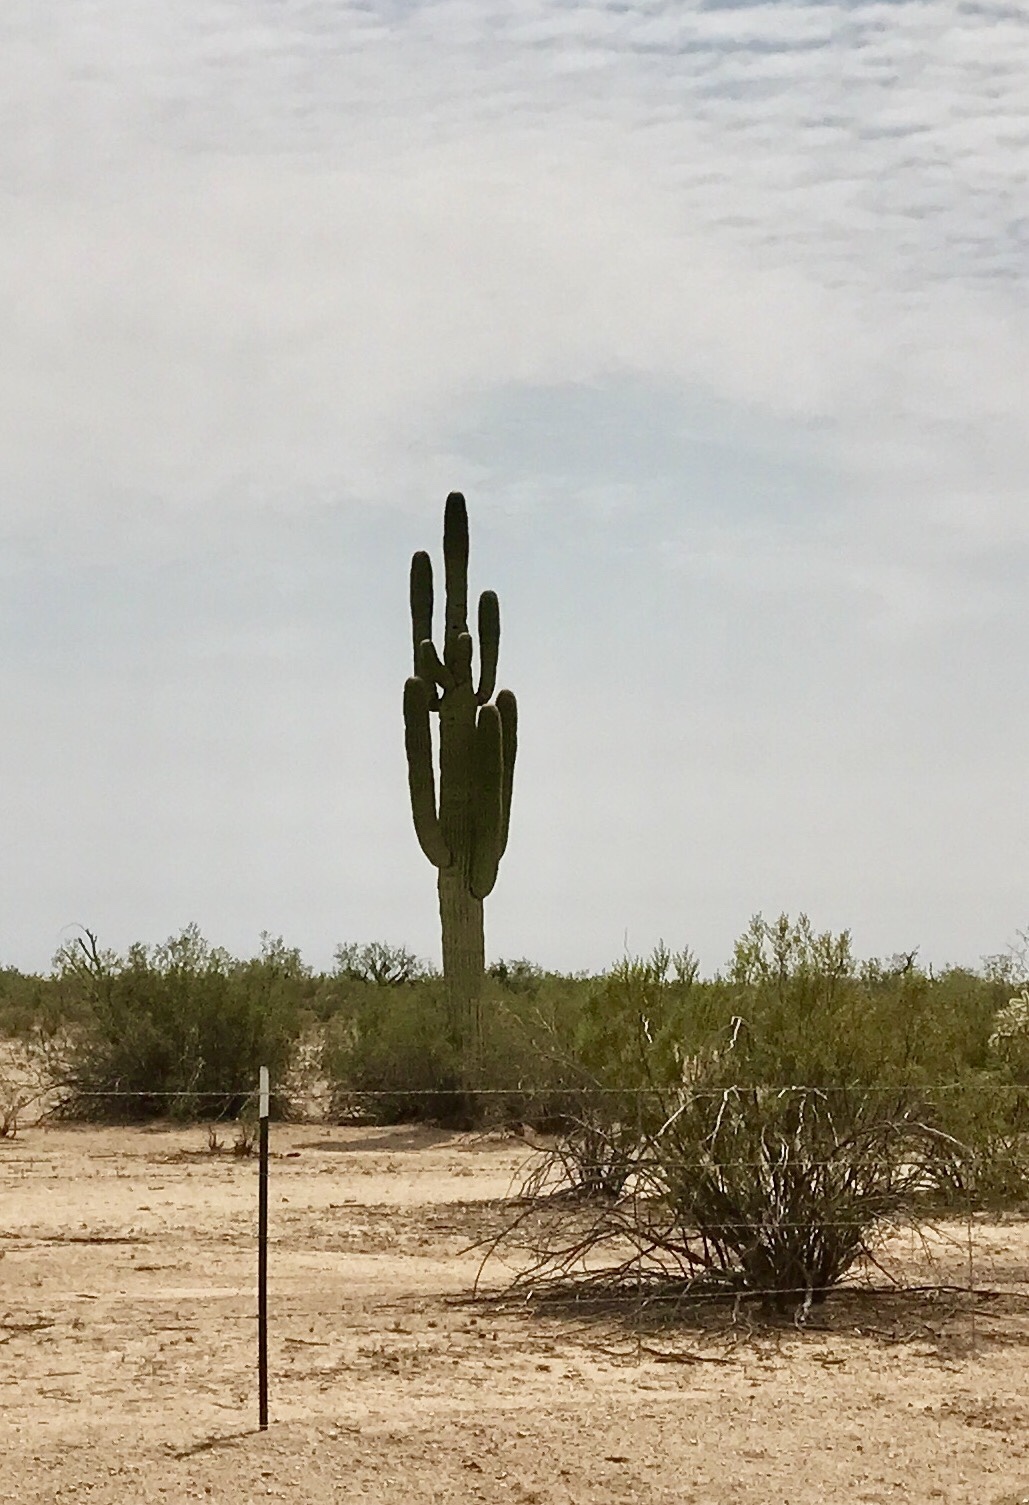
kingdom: Plantae
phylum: Tracheophyta
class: Magnoliopsida
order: Caryophyllales
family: Cactaceae
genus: Carnegiea
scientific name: Carnegiea gigantea
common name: Saguaro
